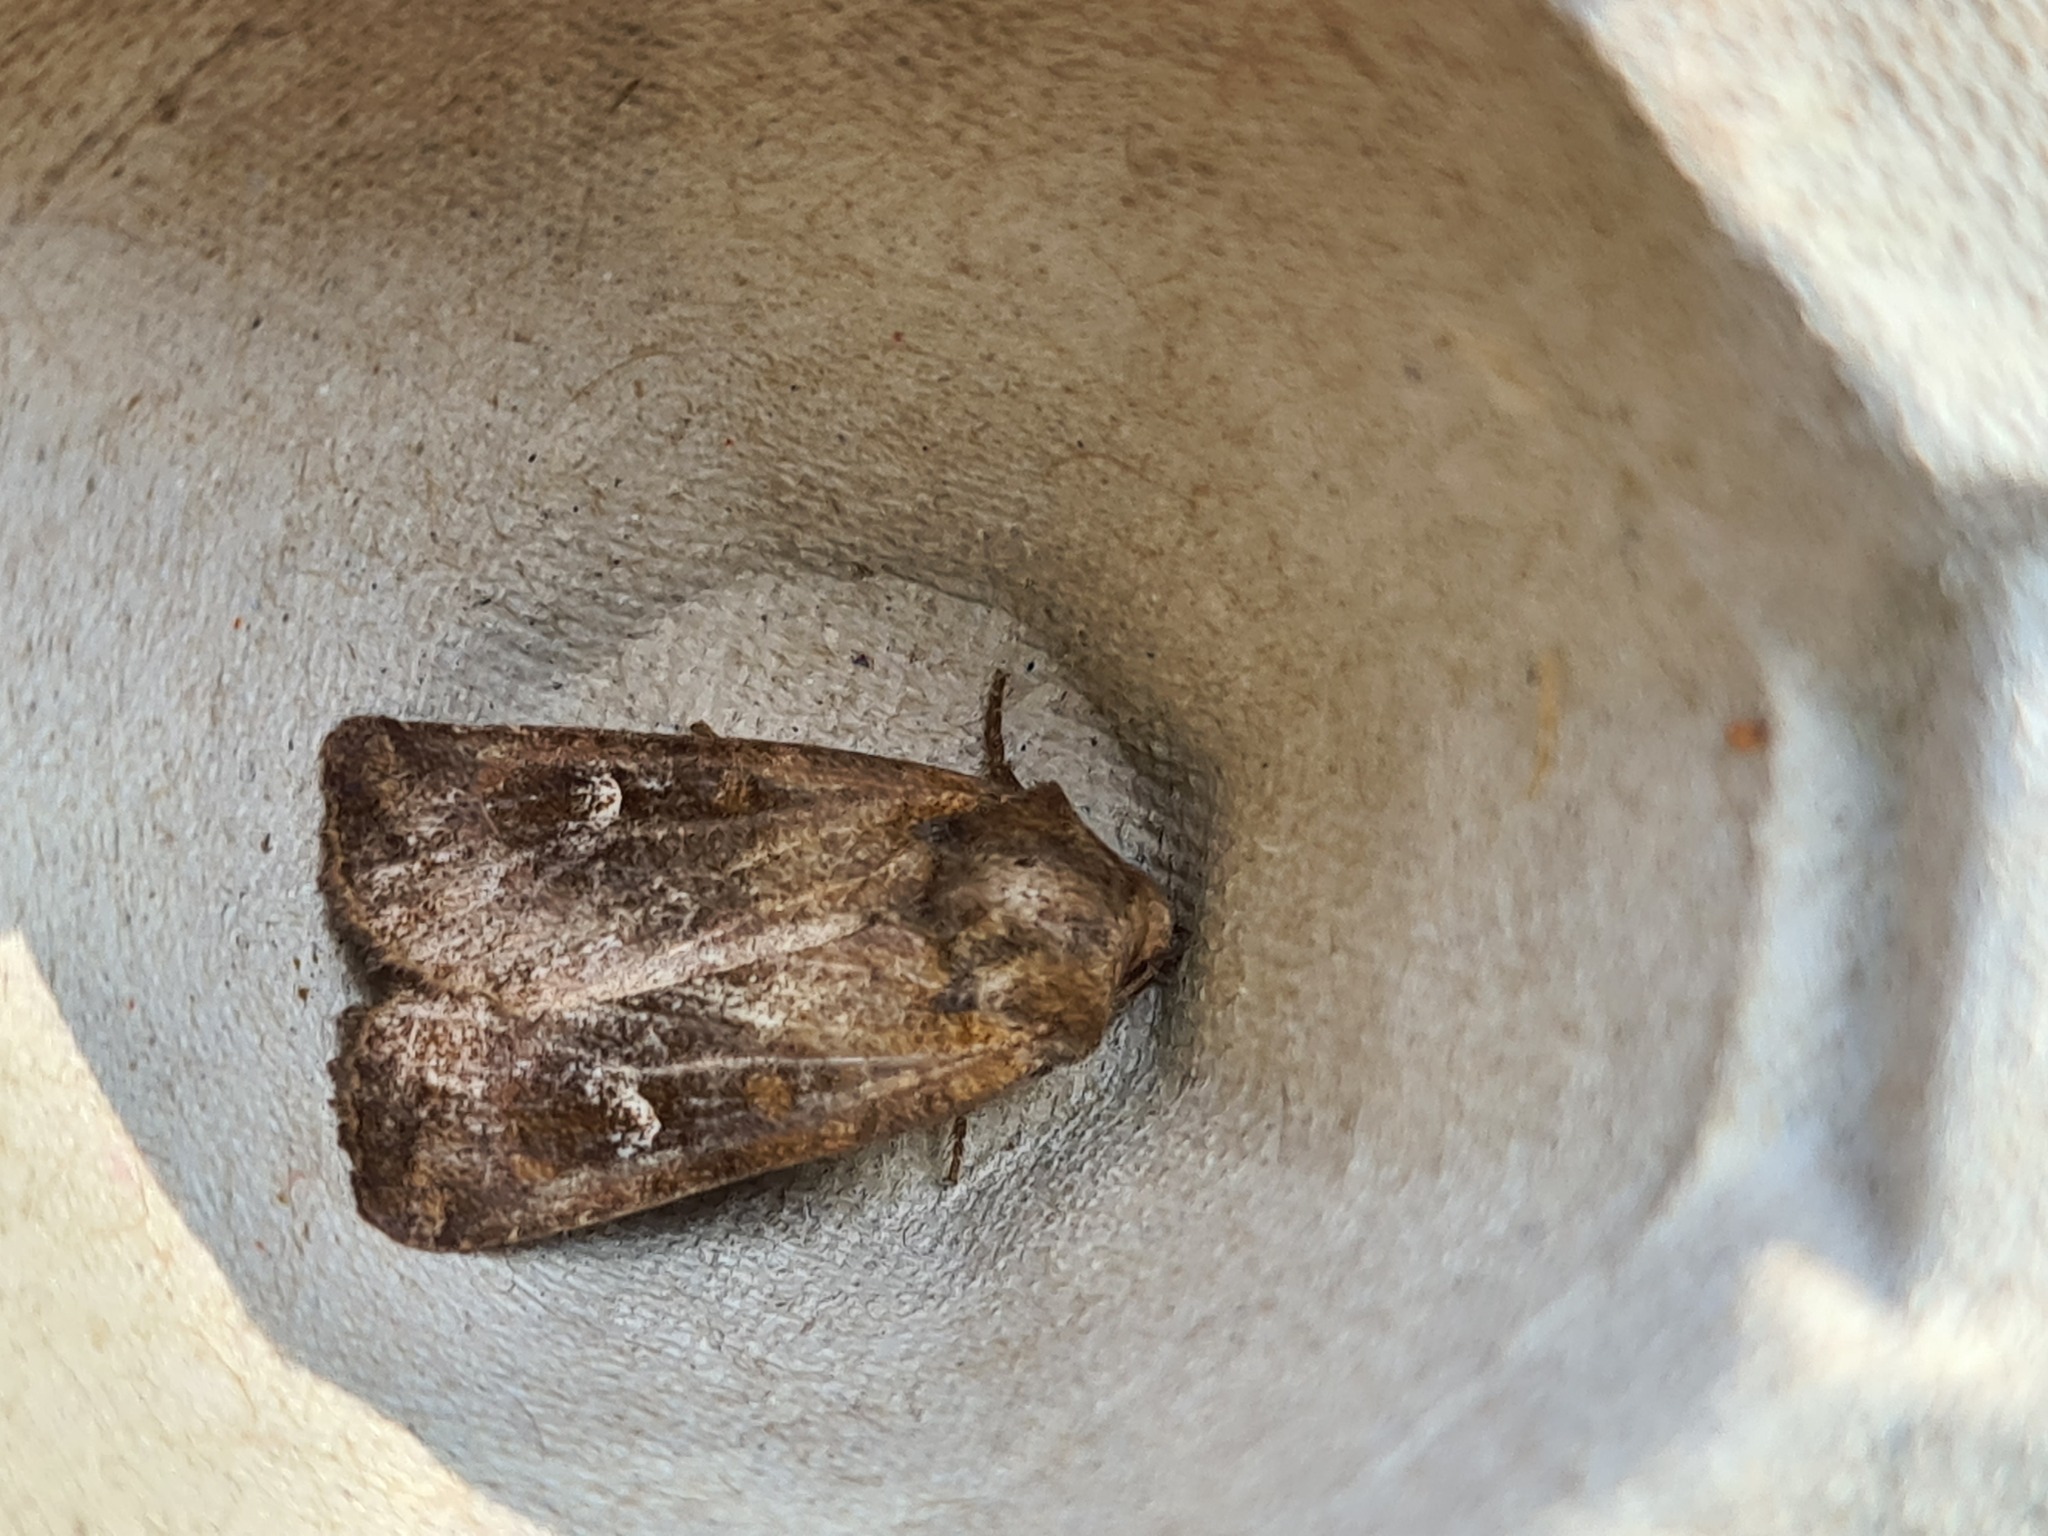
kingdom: Animalia
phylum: Arthropoda
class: Insecta
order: Lepidoptera
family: Noctuidae
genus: Helotropha
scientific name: Helotropha leucostigma
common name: The crescent
